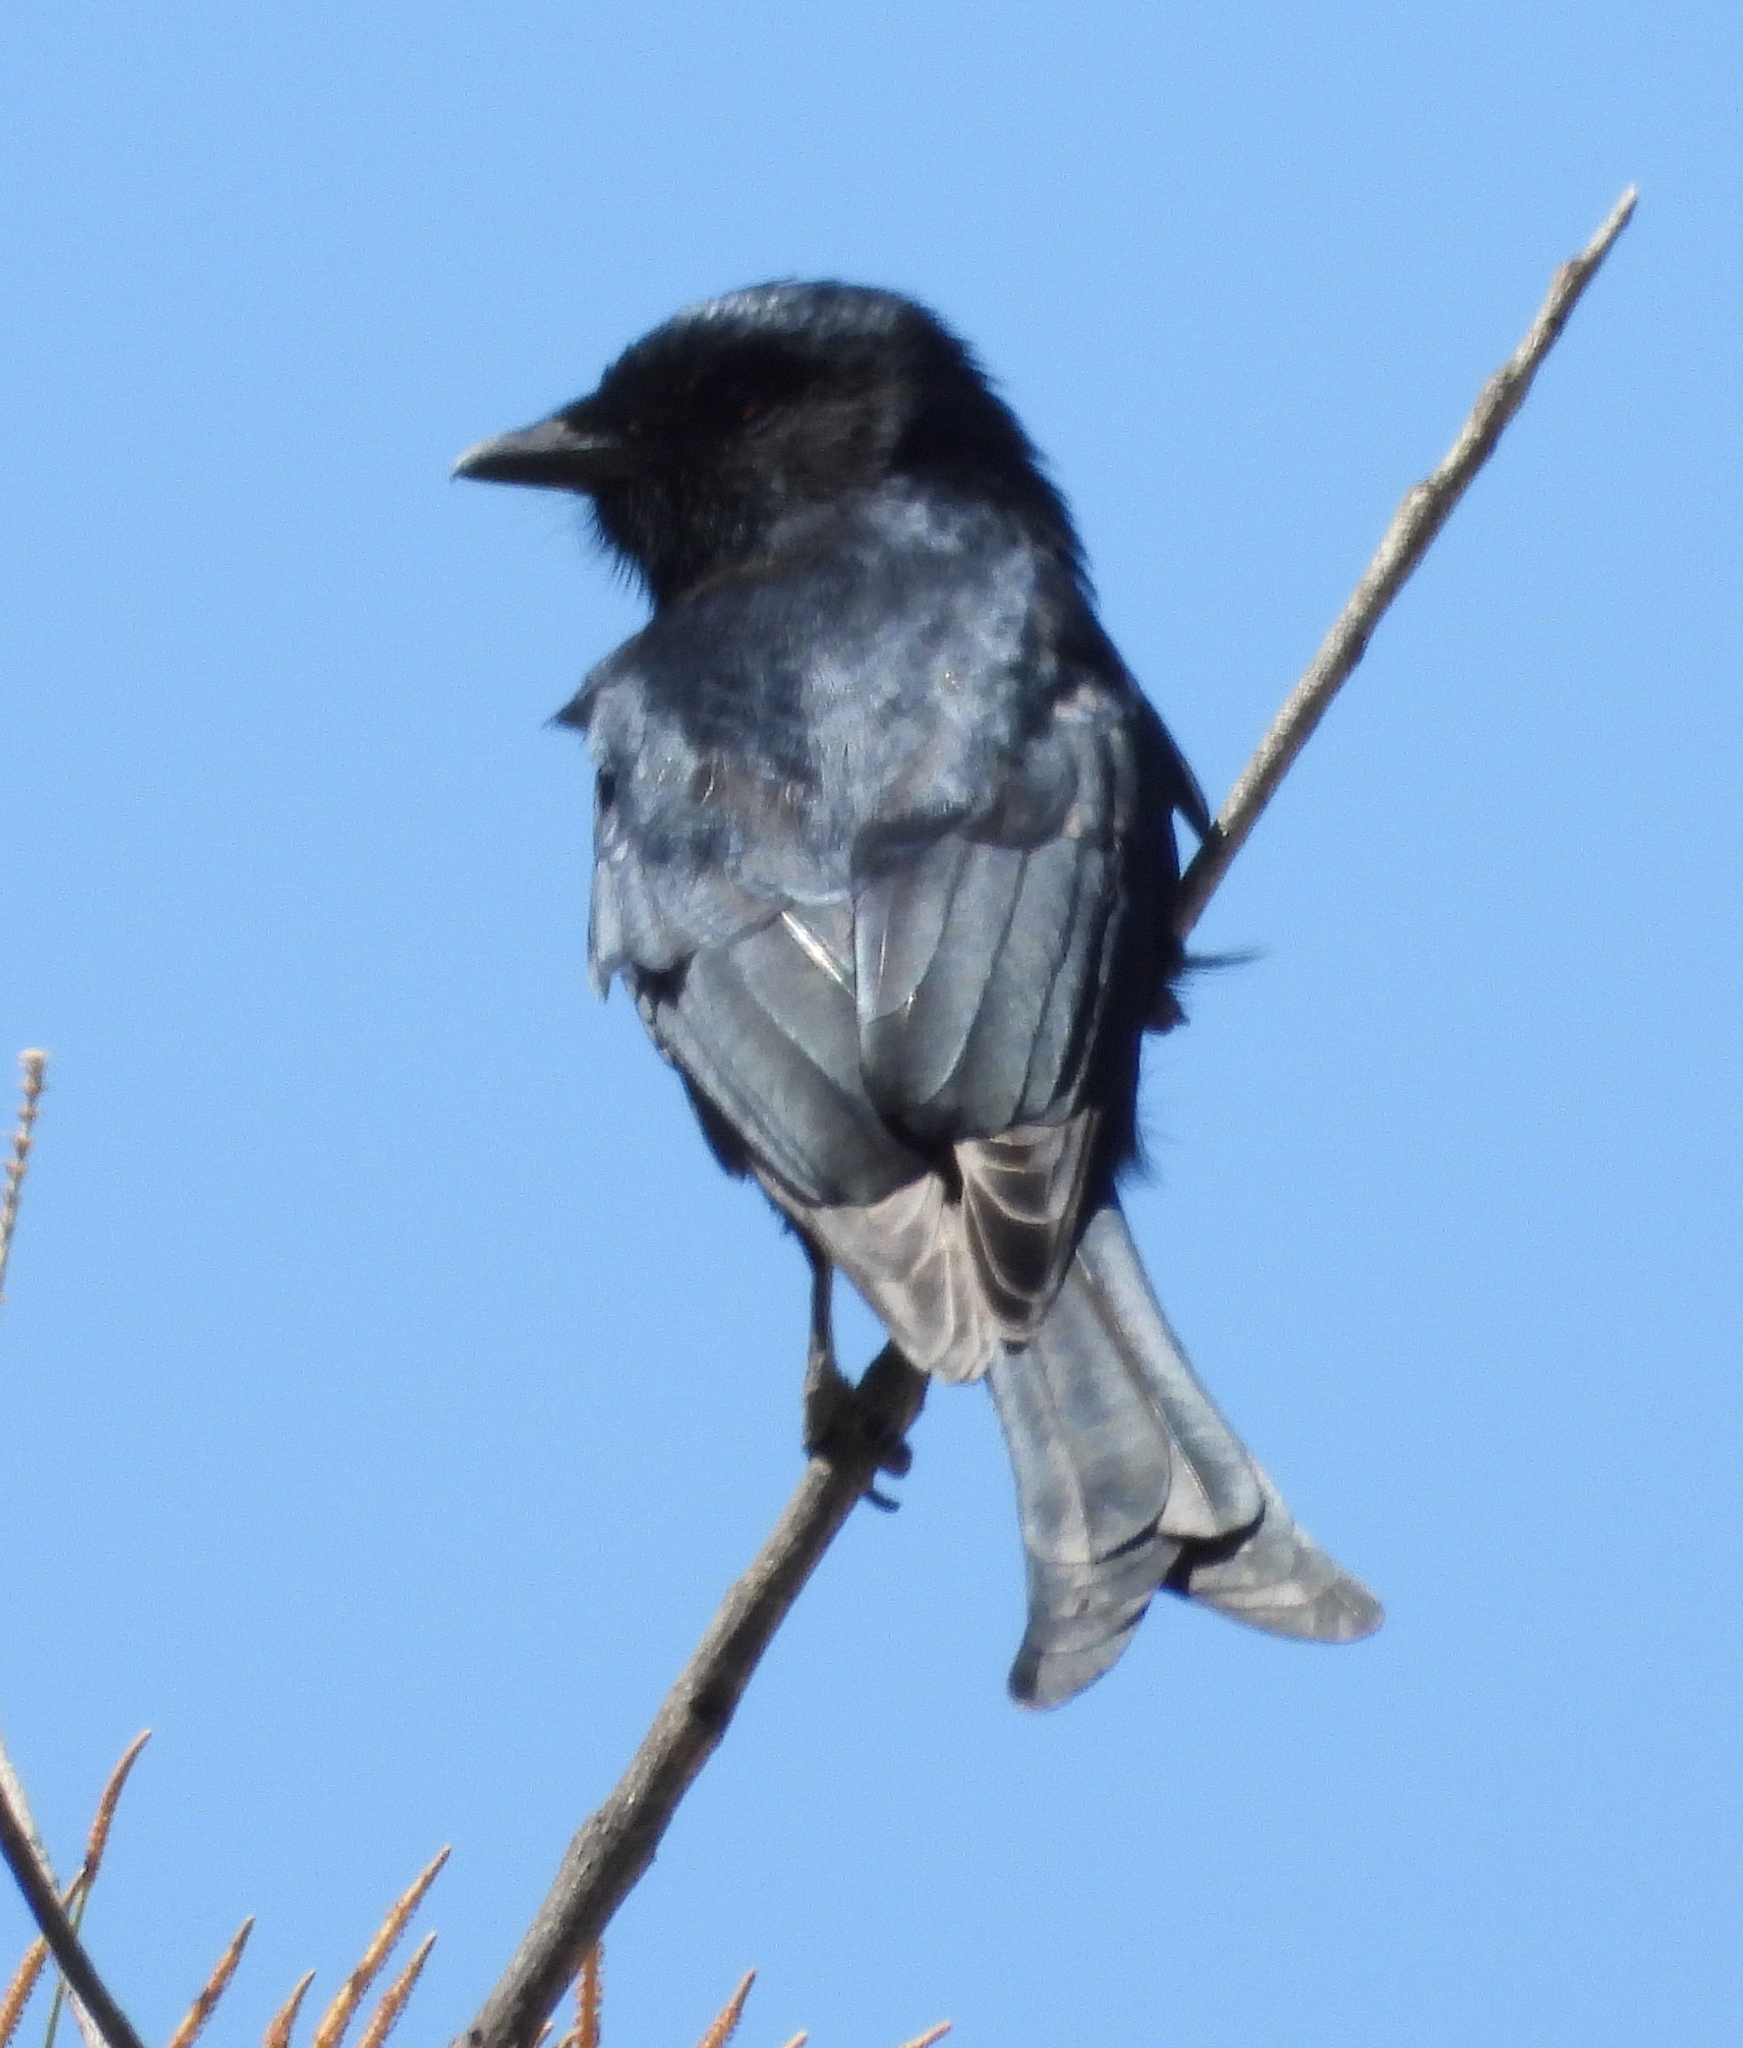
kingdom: Animalia
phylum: Chordata
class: Aves
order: Passeriformes
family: Dicruridae
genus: Dicrurus
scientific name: Dicrurus adsimilis
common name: Fork-tailed drongo
